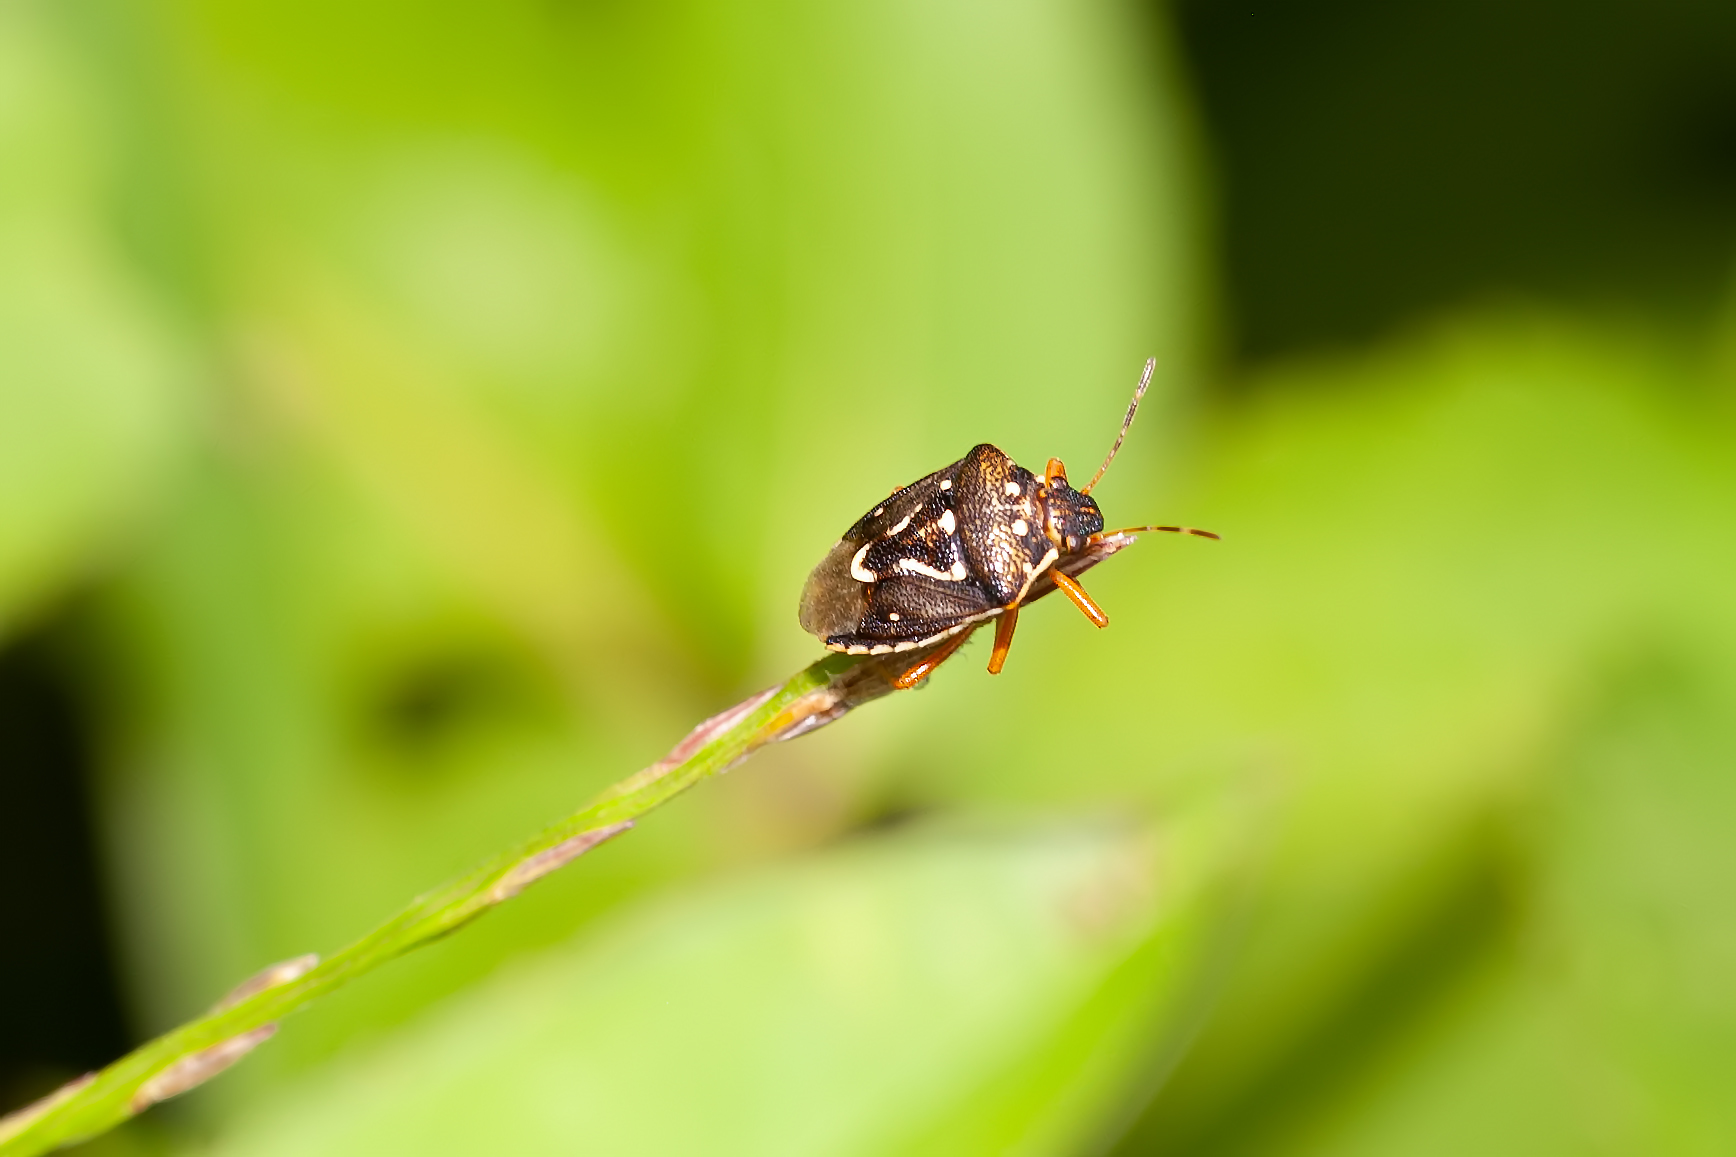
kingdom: Animalia
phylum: Arthropoda
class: Insecta
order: Hemiptera
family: Pentatomidae
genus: Mormidea
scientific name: Mormidea pama
